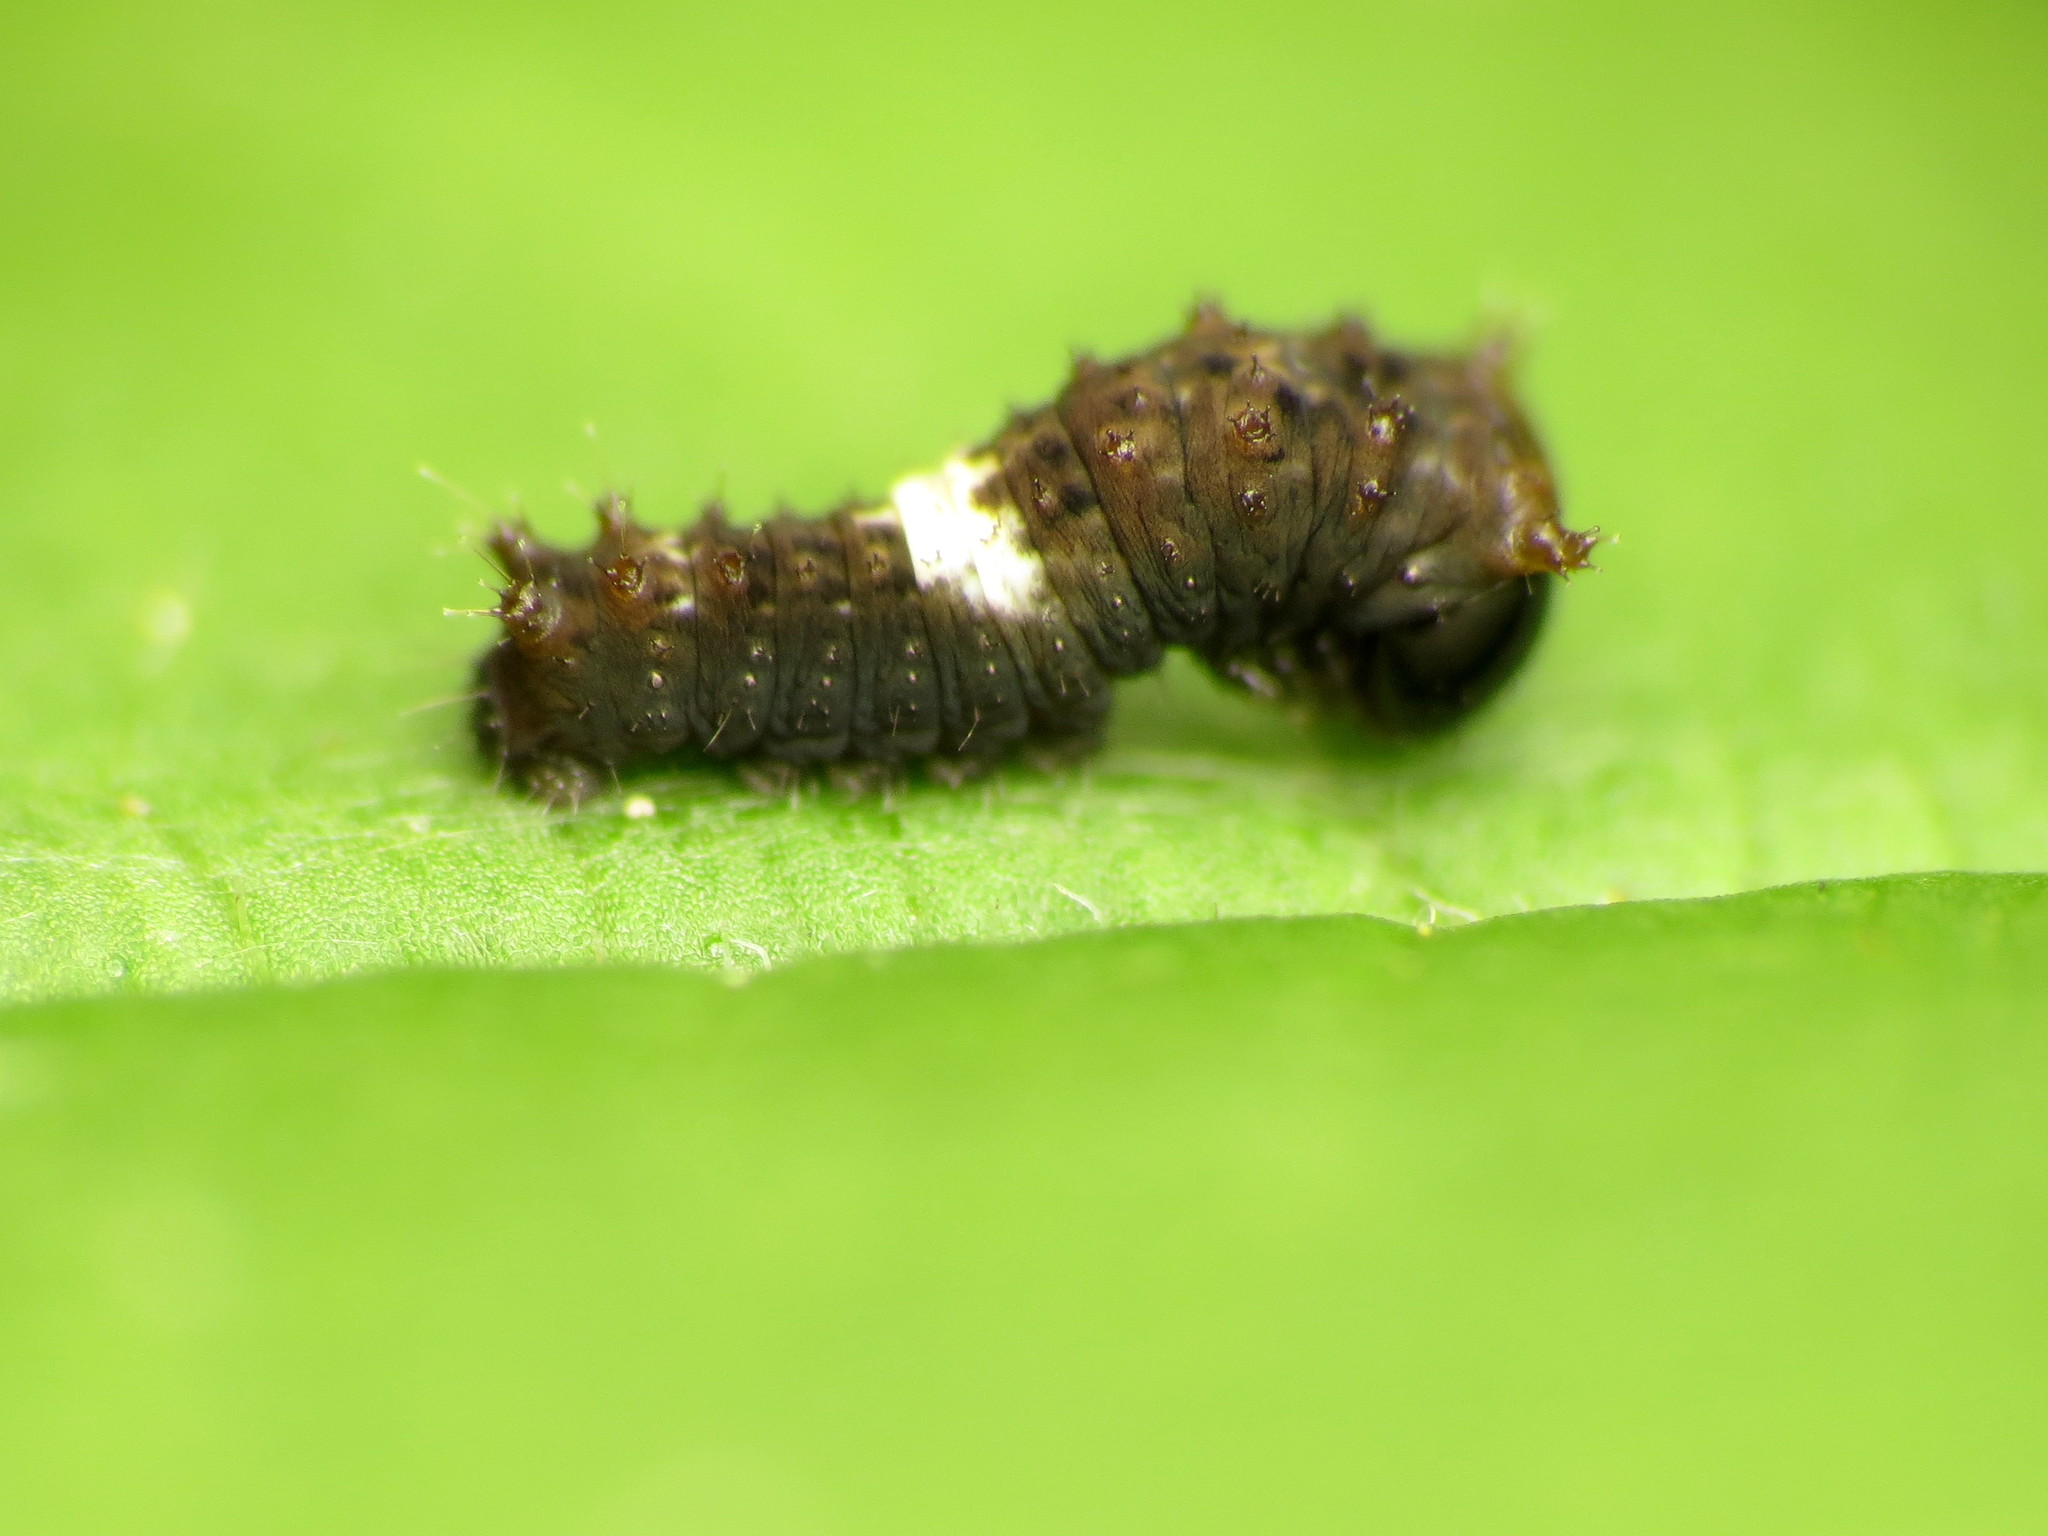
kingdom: Animalia
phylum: Arthropoda
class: Insecta
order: Lepidoptera
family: Papilionidae
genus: Papilio
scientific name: Papilio glaucus
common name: Tiger swallowtail
